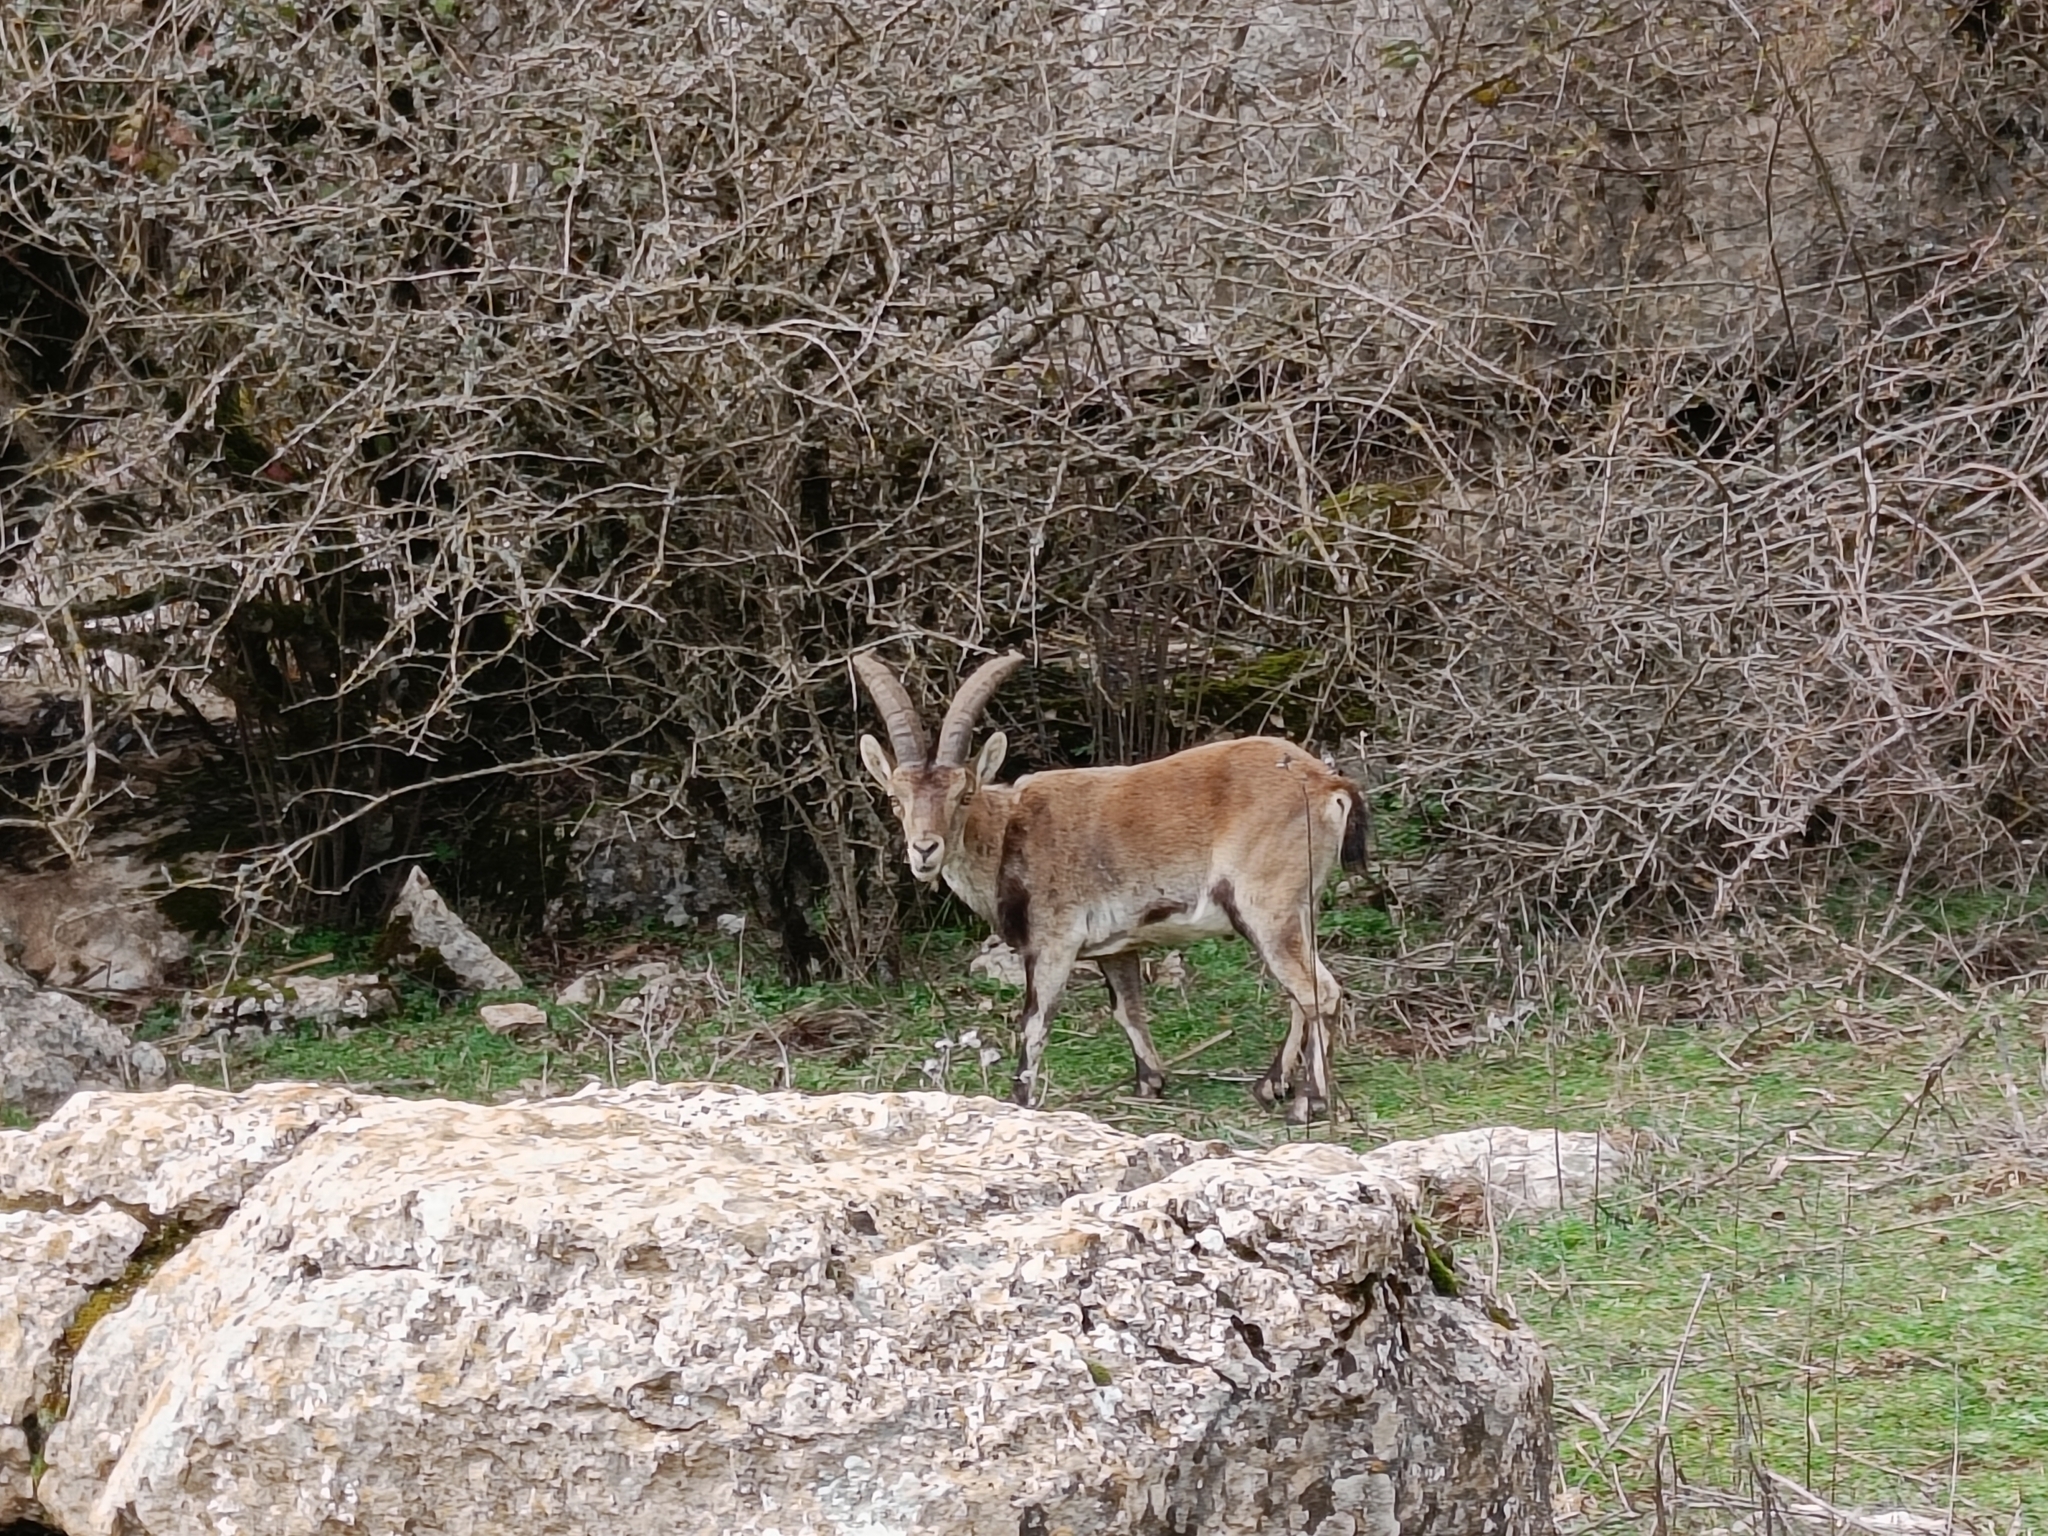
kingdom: Animalia
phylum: Chordata
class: Mammalia
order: Artiodactyla
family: Bovidae
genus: Capra
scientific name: Capra pyrenaica
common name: Spanish ibex
